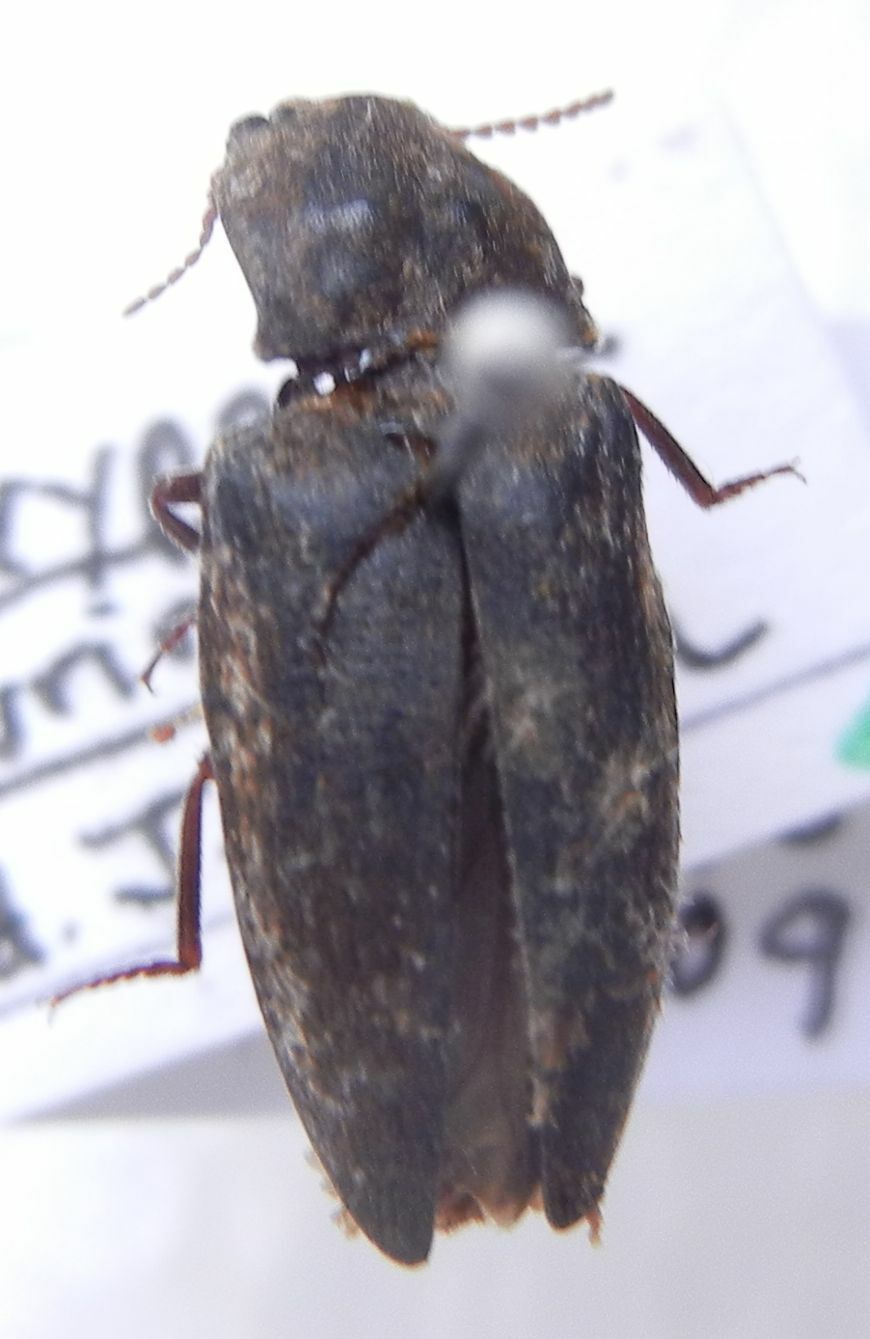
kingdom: Animalia
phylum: Arthropoda
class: Insecta
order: Coleoptera
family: Elateridae
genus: Agrypnus
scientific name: Agrypnus murinus
